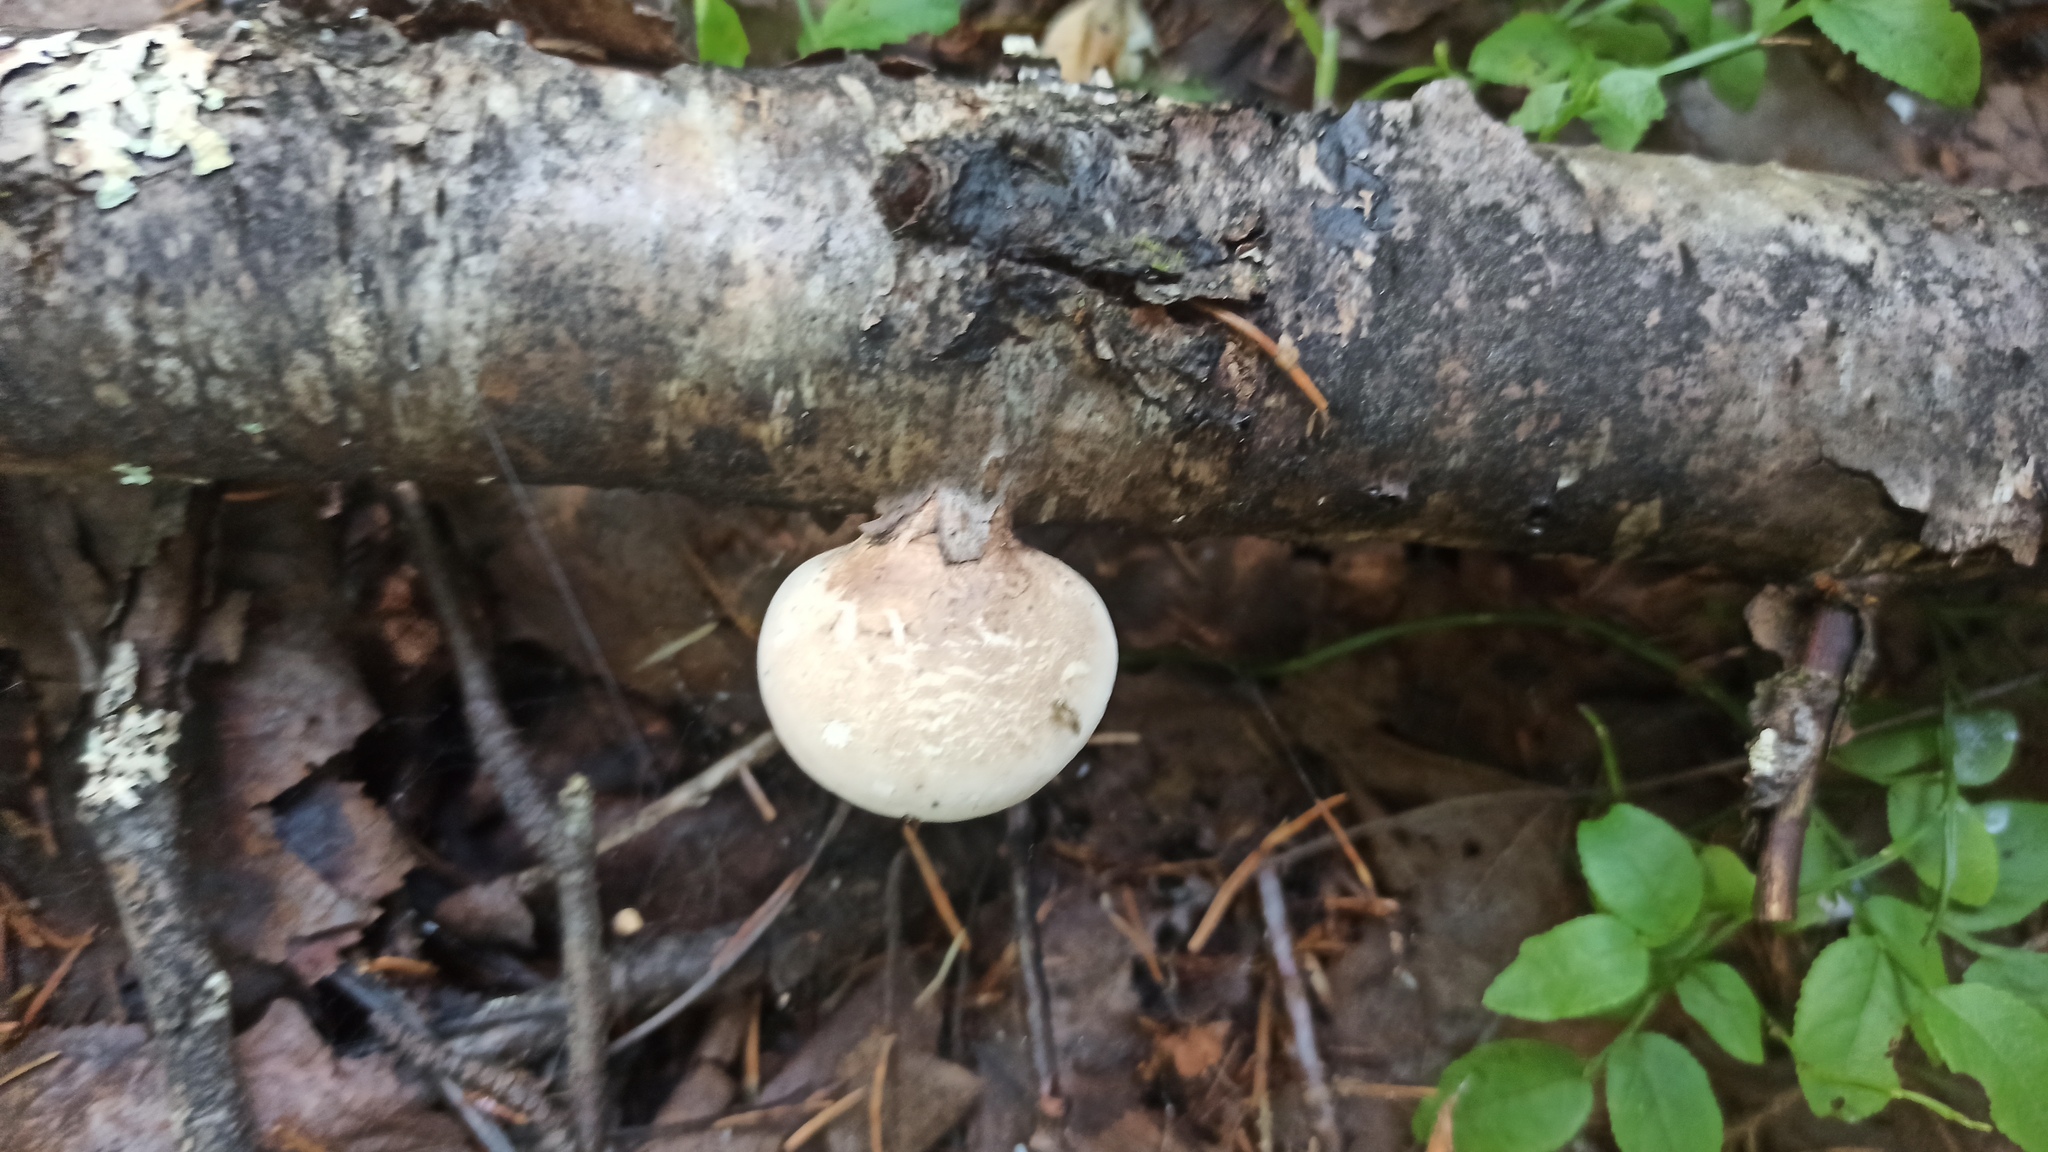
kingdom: Fungi
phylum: Basidiomycota
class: Agaricomycetes
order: Polyporales
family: Fomitopsidaceae
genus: Fomitopsis
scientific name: Fomitopsis betulina
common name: Birch polypore
